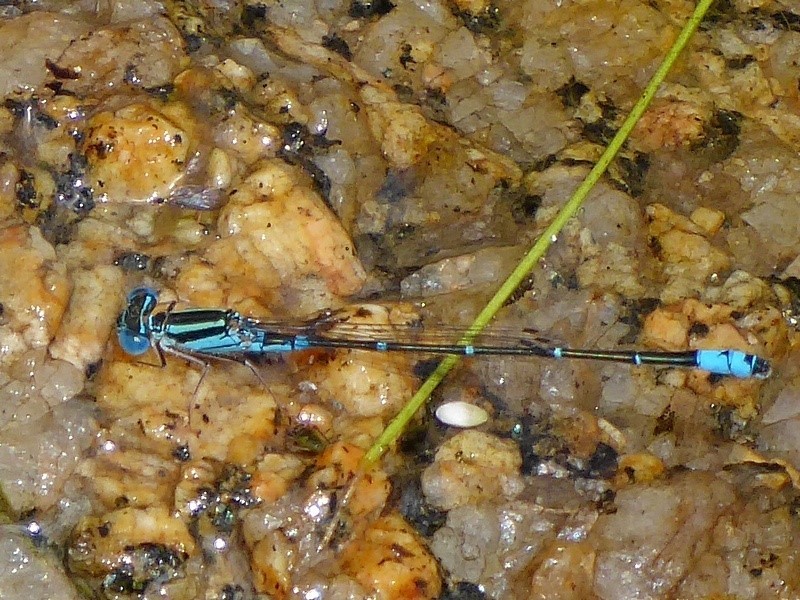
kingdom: Animalia
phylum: Arthropoda
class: Insecta
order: Odonata
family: Coenagrionidae
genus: Austroagrion
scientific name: Austroagrion watsoni
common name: Eastern billabongfly
